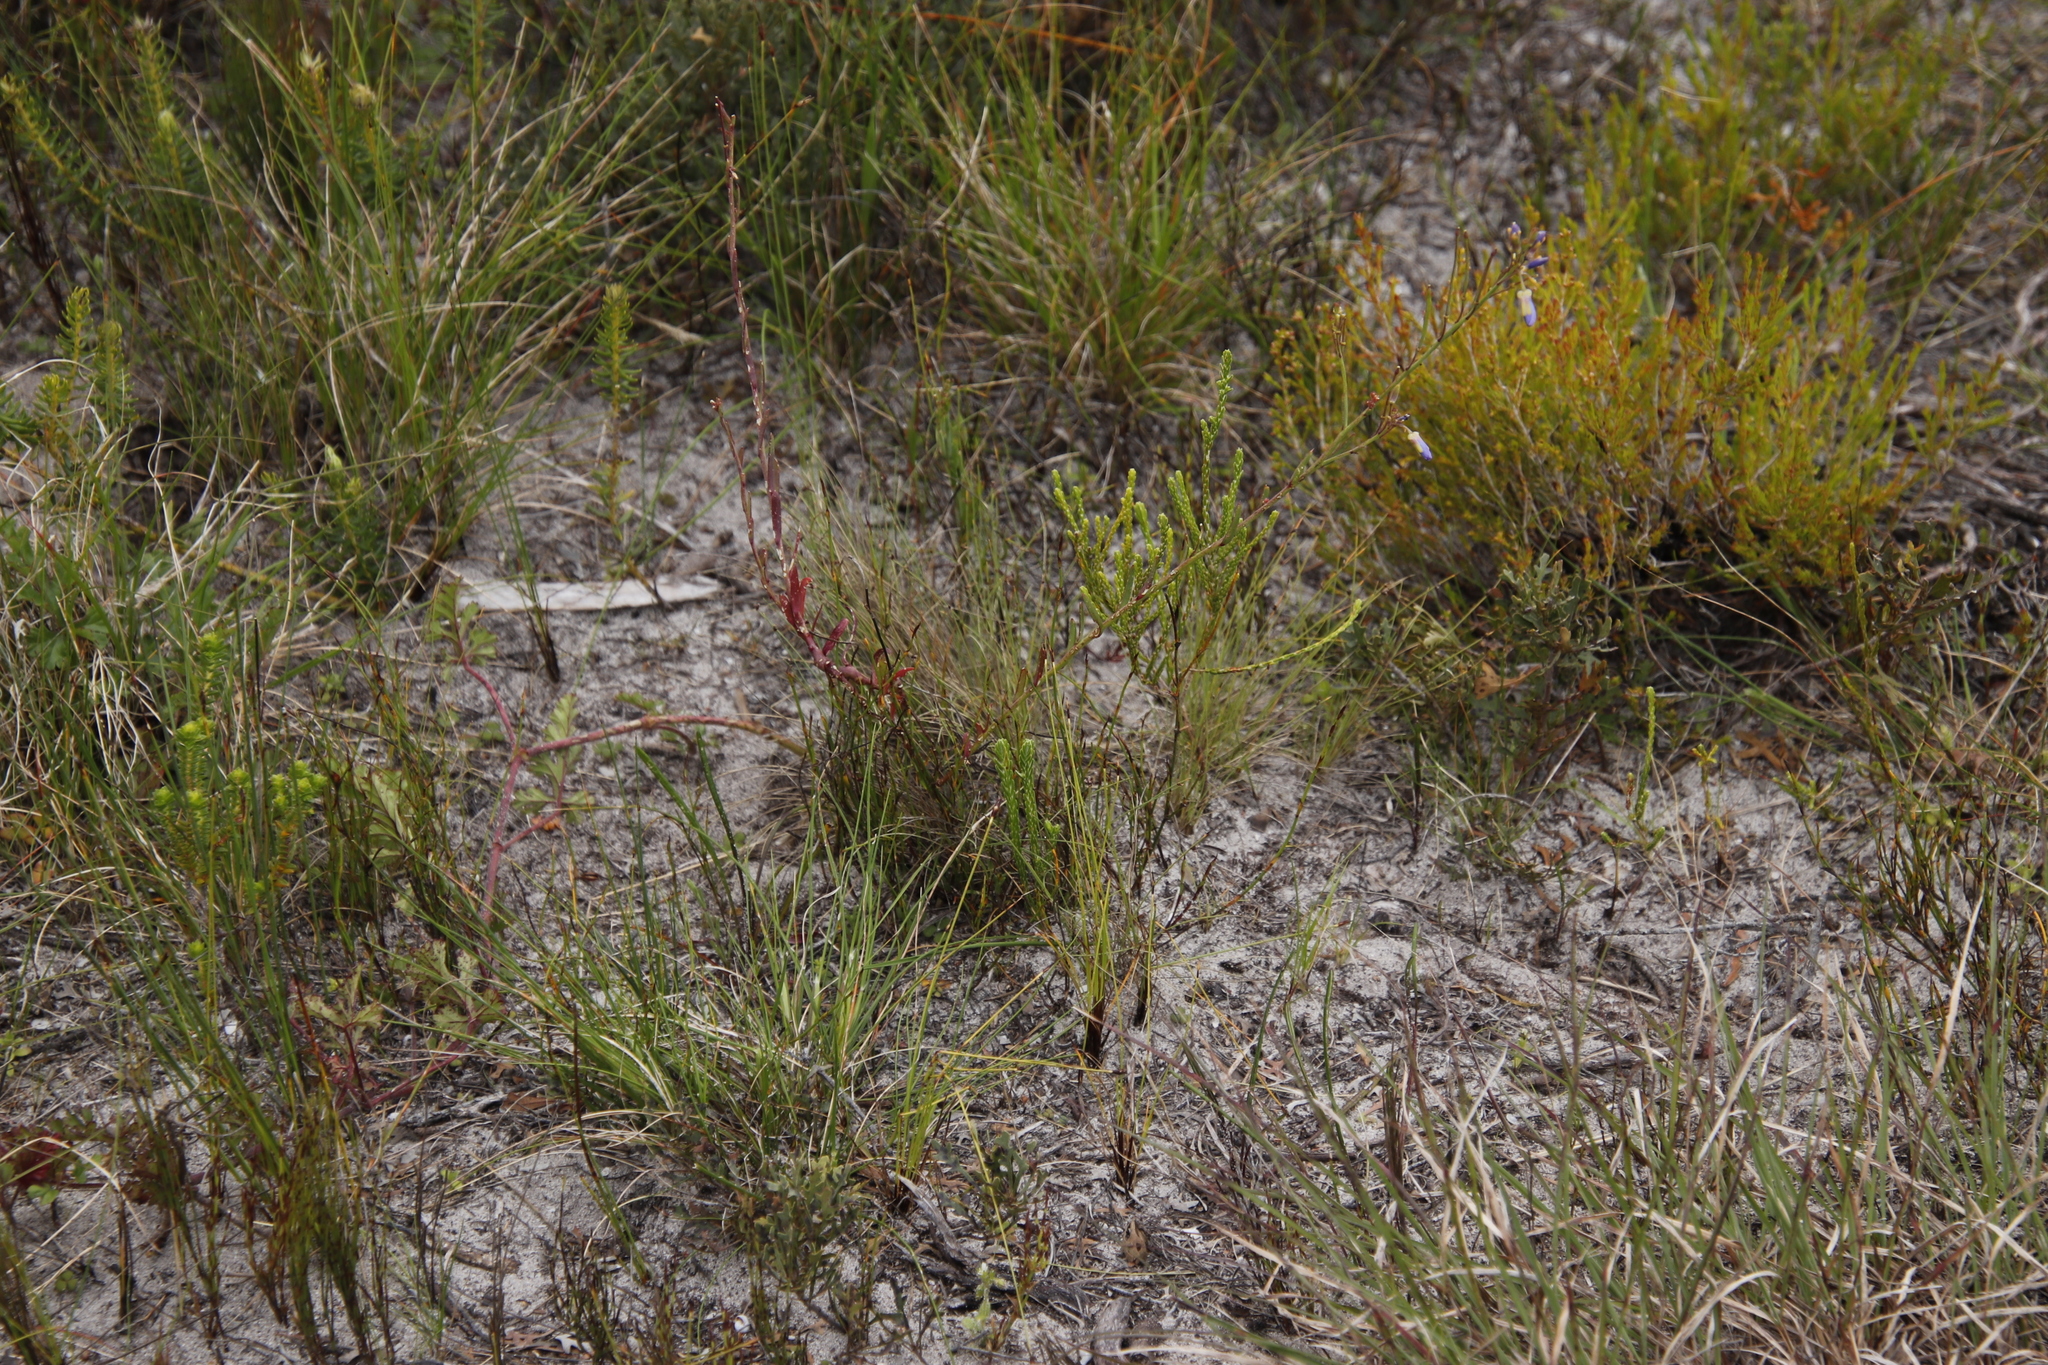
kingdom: Plantae
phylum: Tracheophyta
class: Magnoliopsida
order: Brassicales
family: Brassicaceae
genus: Heliophila
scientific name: Heliophila linearis
